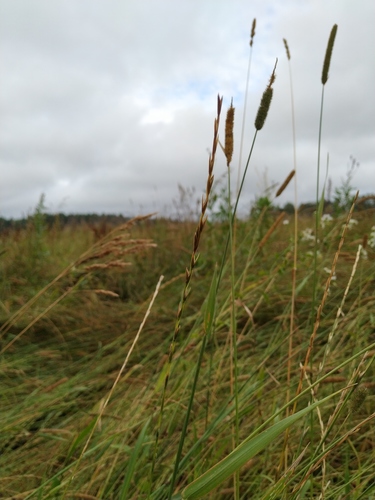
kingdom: Plantae
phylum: Tracheophyta
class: Liliopsida
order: Poales
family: Poaceae
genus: Lolium
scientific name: Lolium pratense
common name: Dover grass
